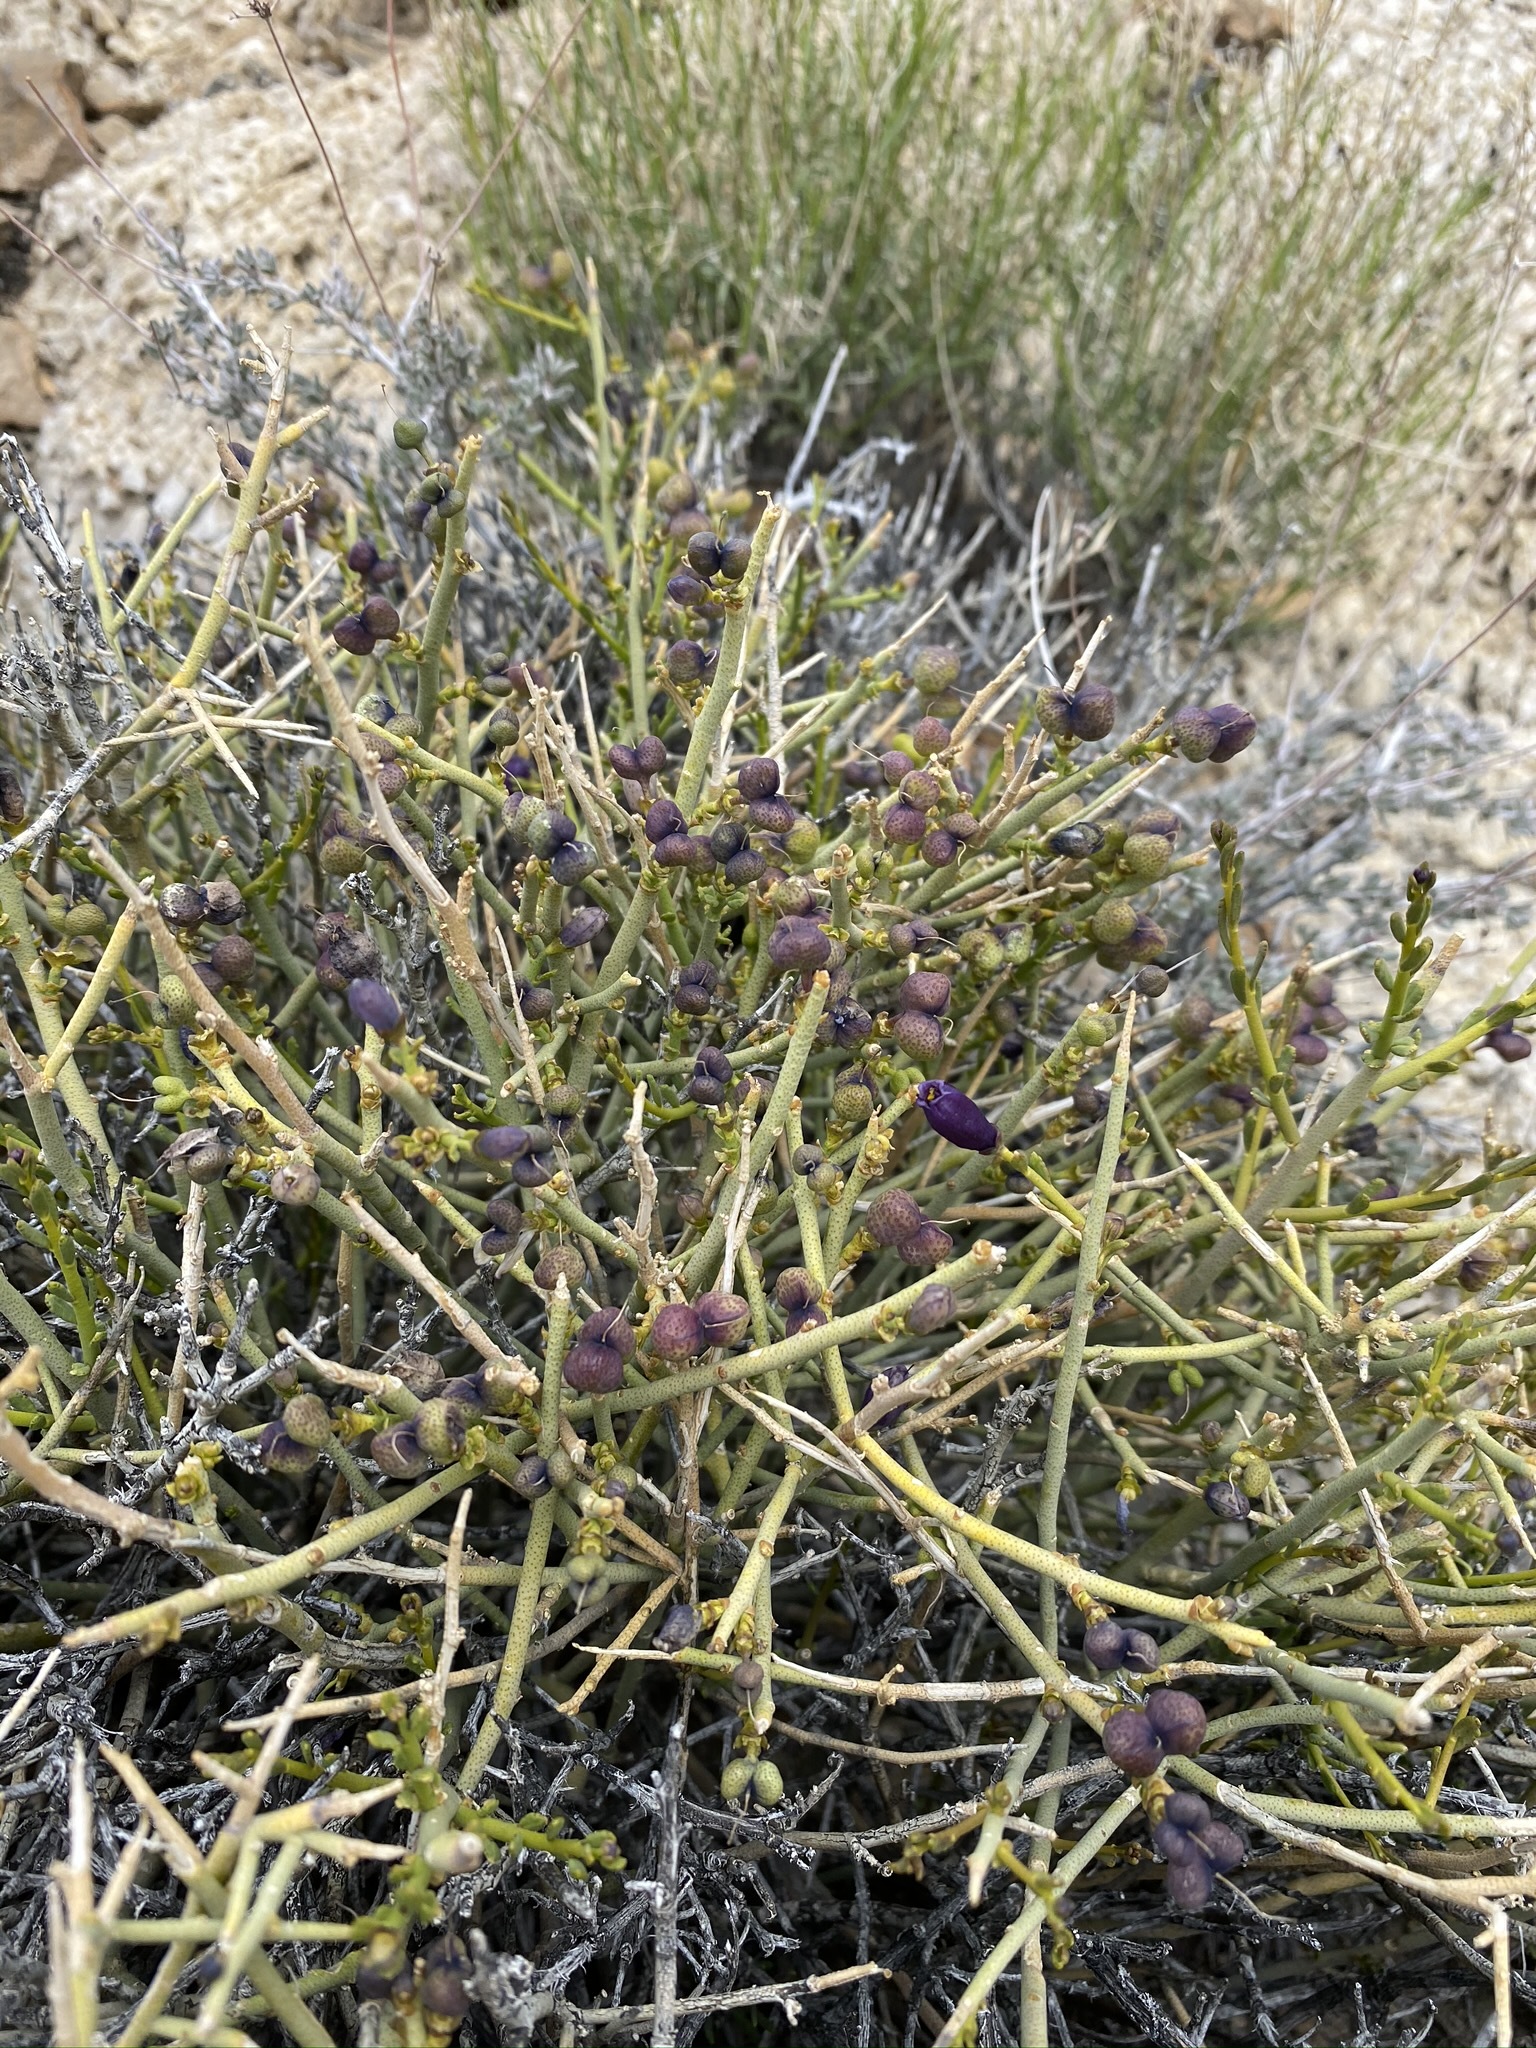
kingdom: Plantae
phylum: Tracheophyta
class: Magnoliopsida
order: Sapindales
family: Rutaceae
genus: Thamnosma
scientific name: Thamnosma montana
